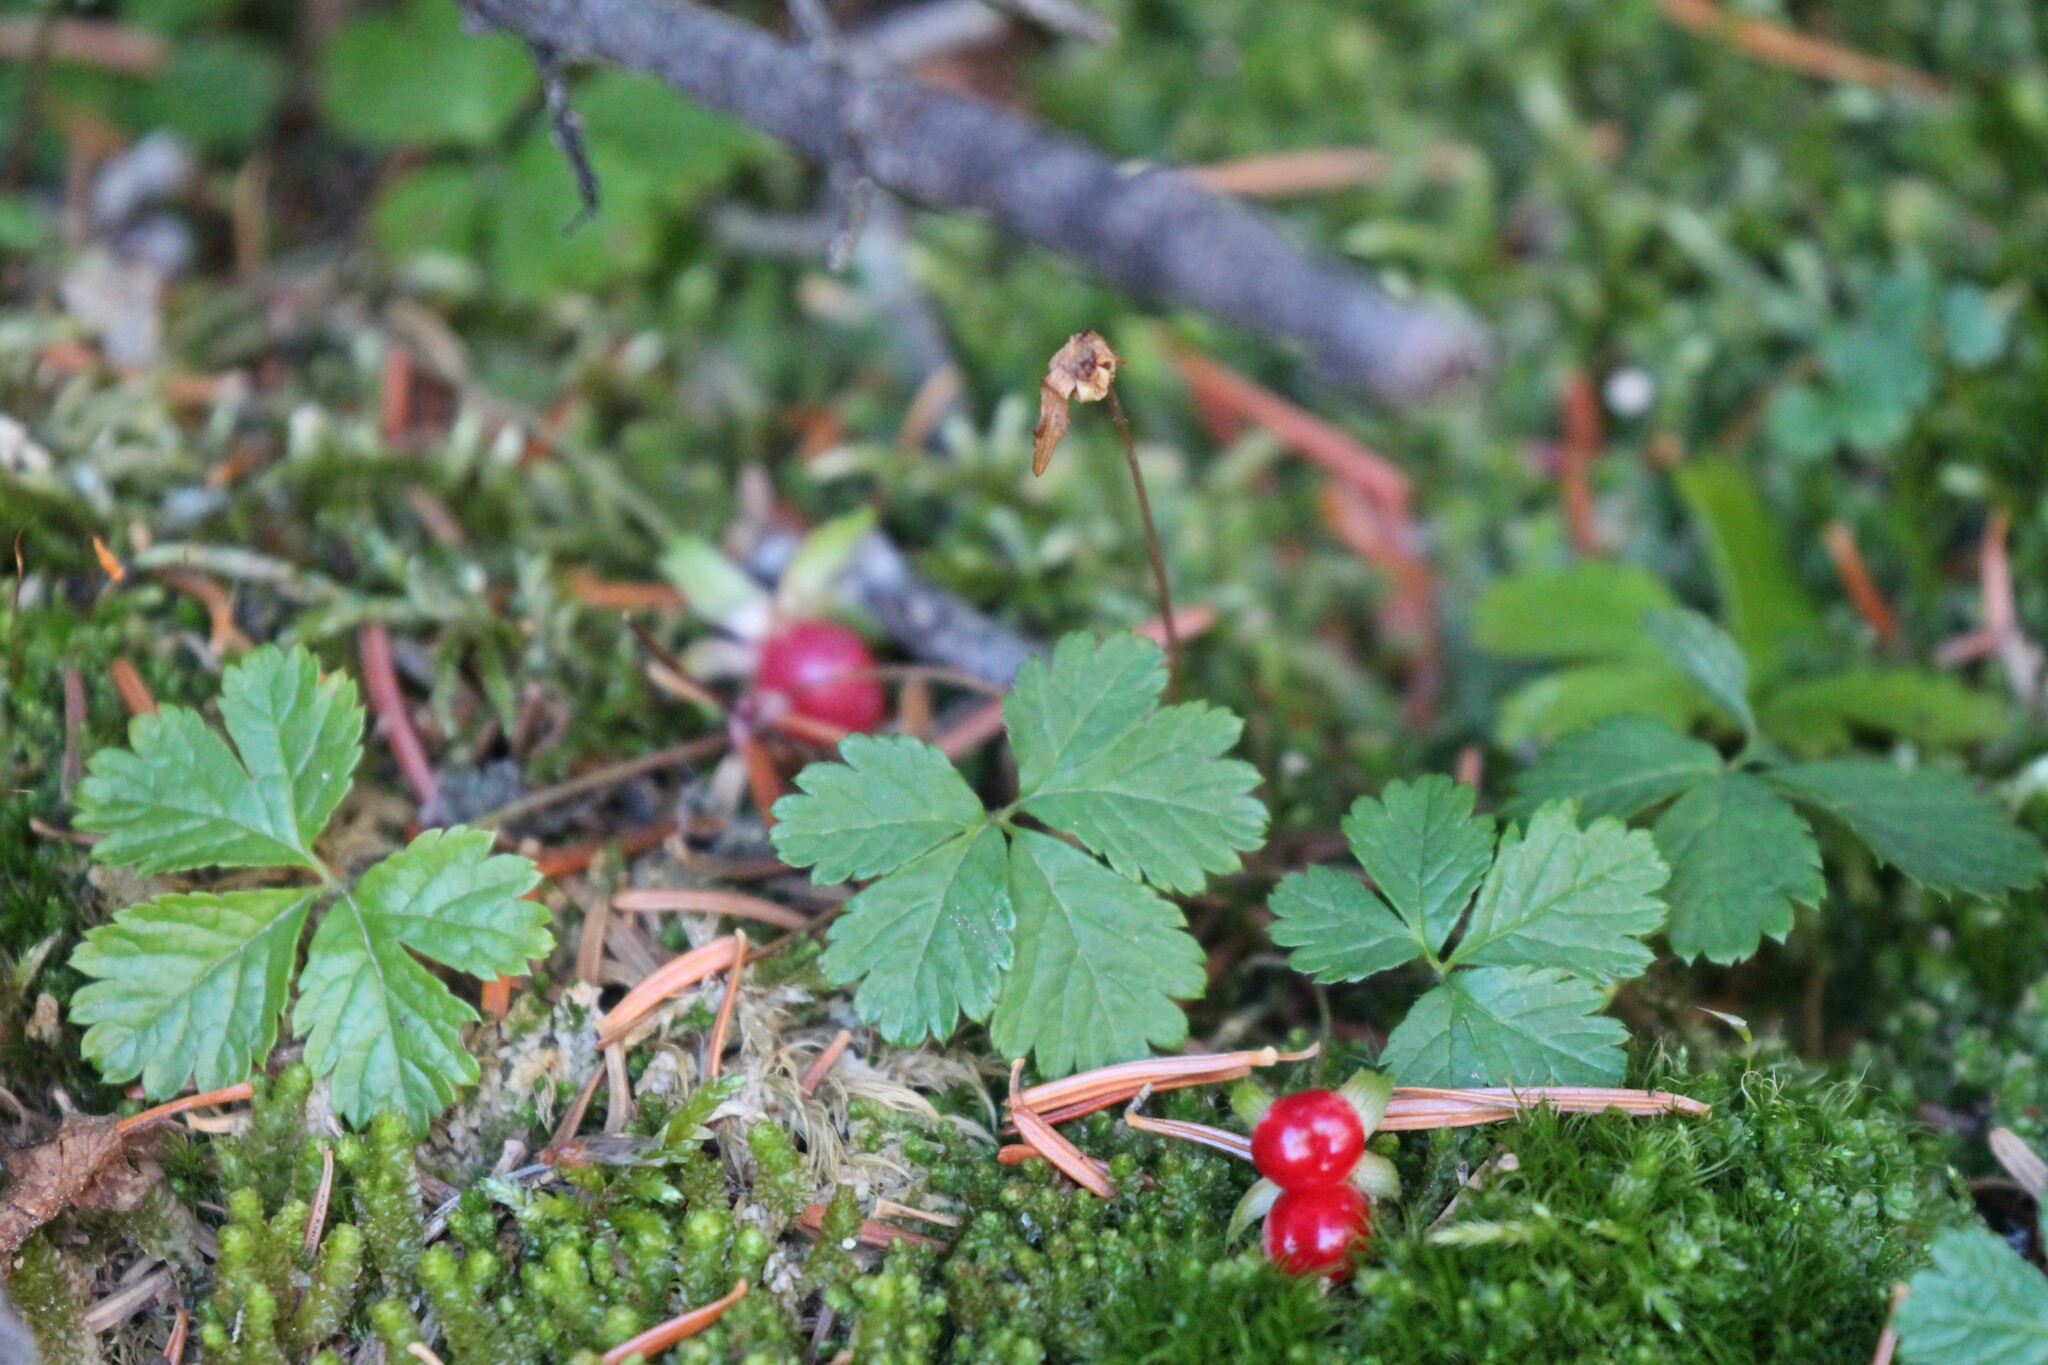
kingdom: Plantae
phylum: Tracheophyta
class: Magnoliopsida
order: Rosales
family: Rosaceae
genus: Rubus
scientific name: Rubus pedatus
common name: Creeping raspberry
